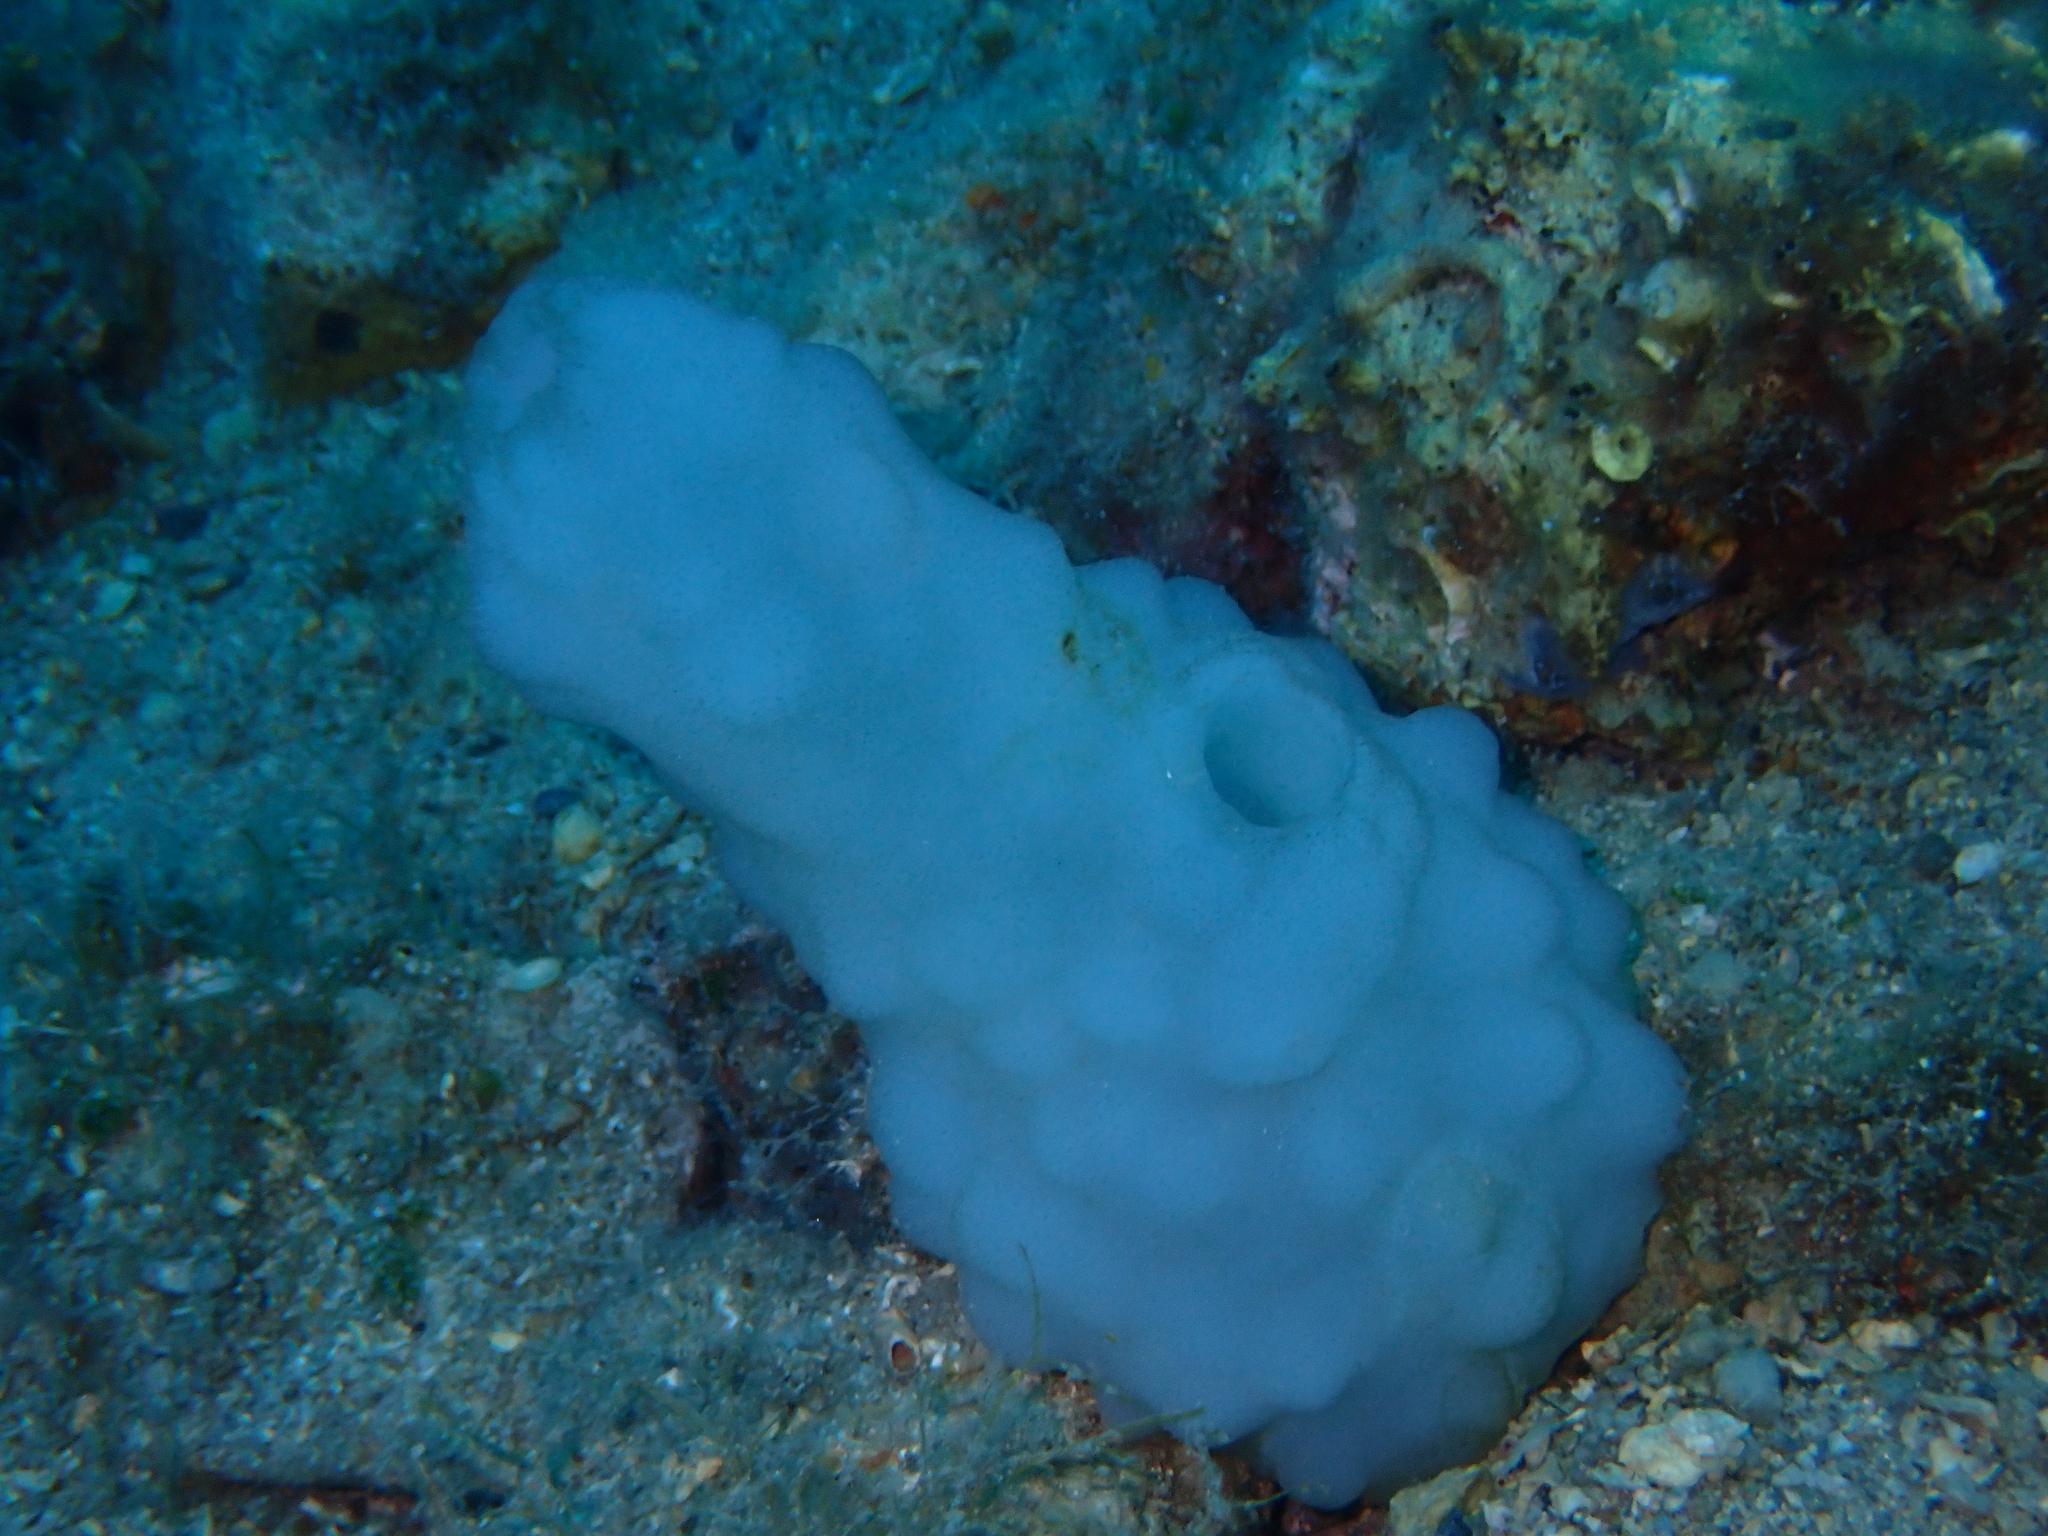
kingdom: Animalia
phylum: Chordata
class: Ascidiacea
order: Phlebobranchia
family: Ascidiidae
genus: Phallusia
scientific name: Phallusia mammillata
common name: Neptune's heart sea squirt
